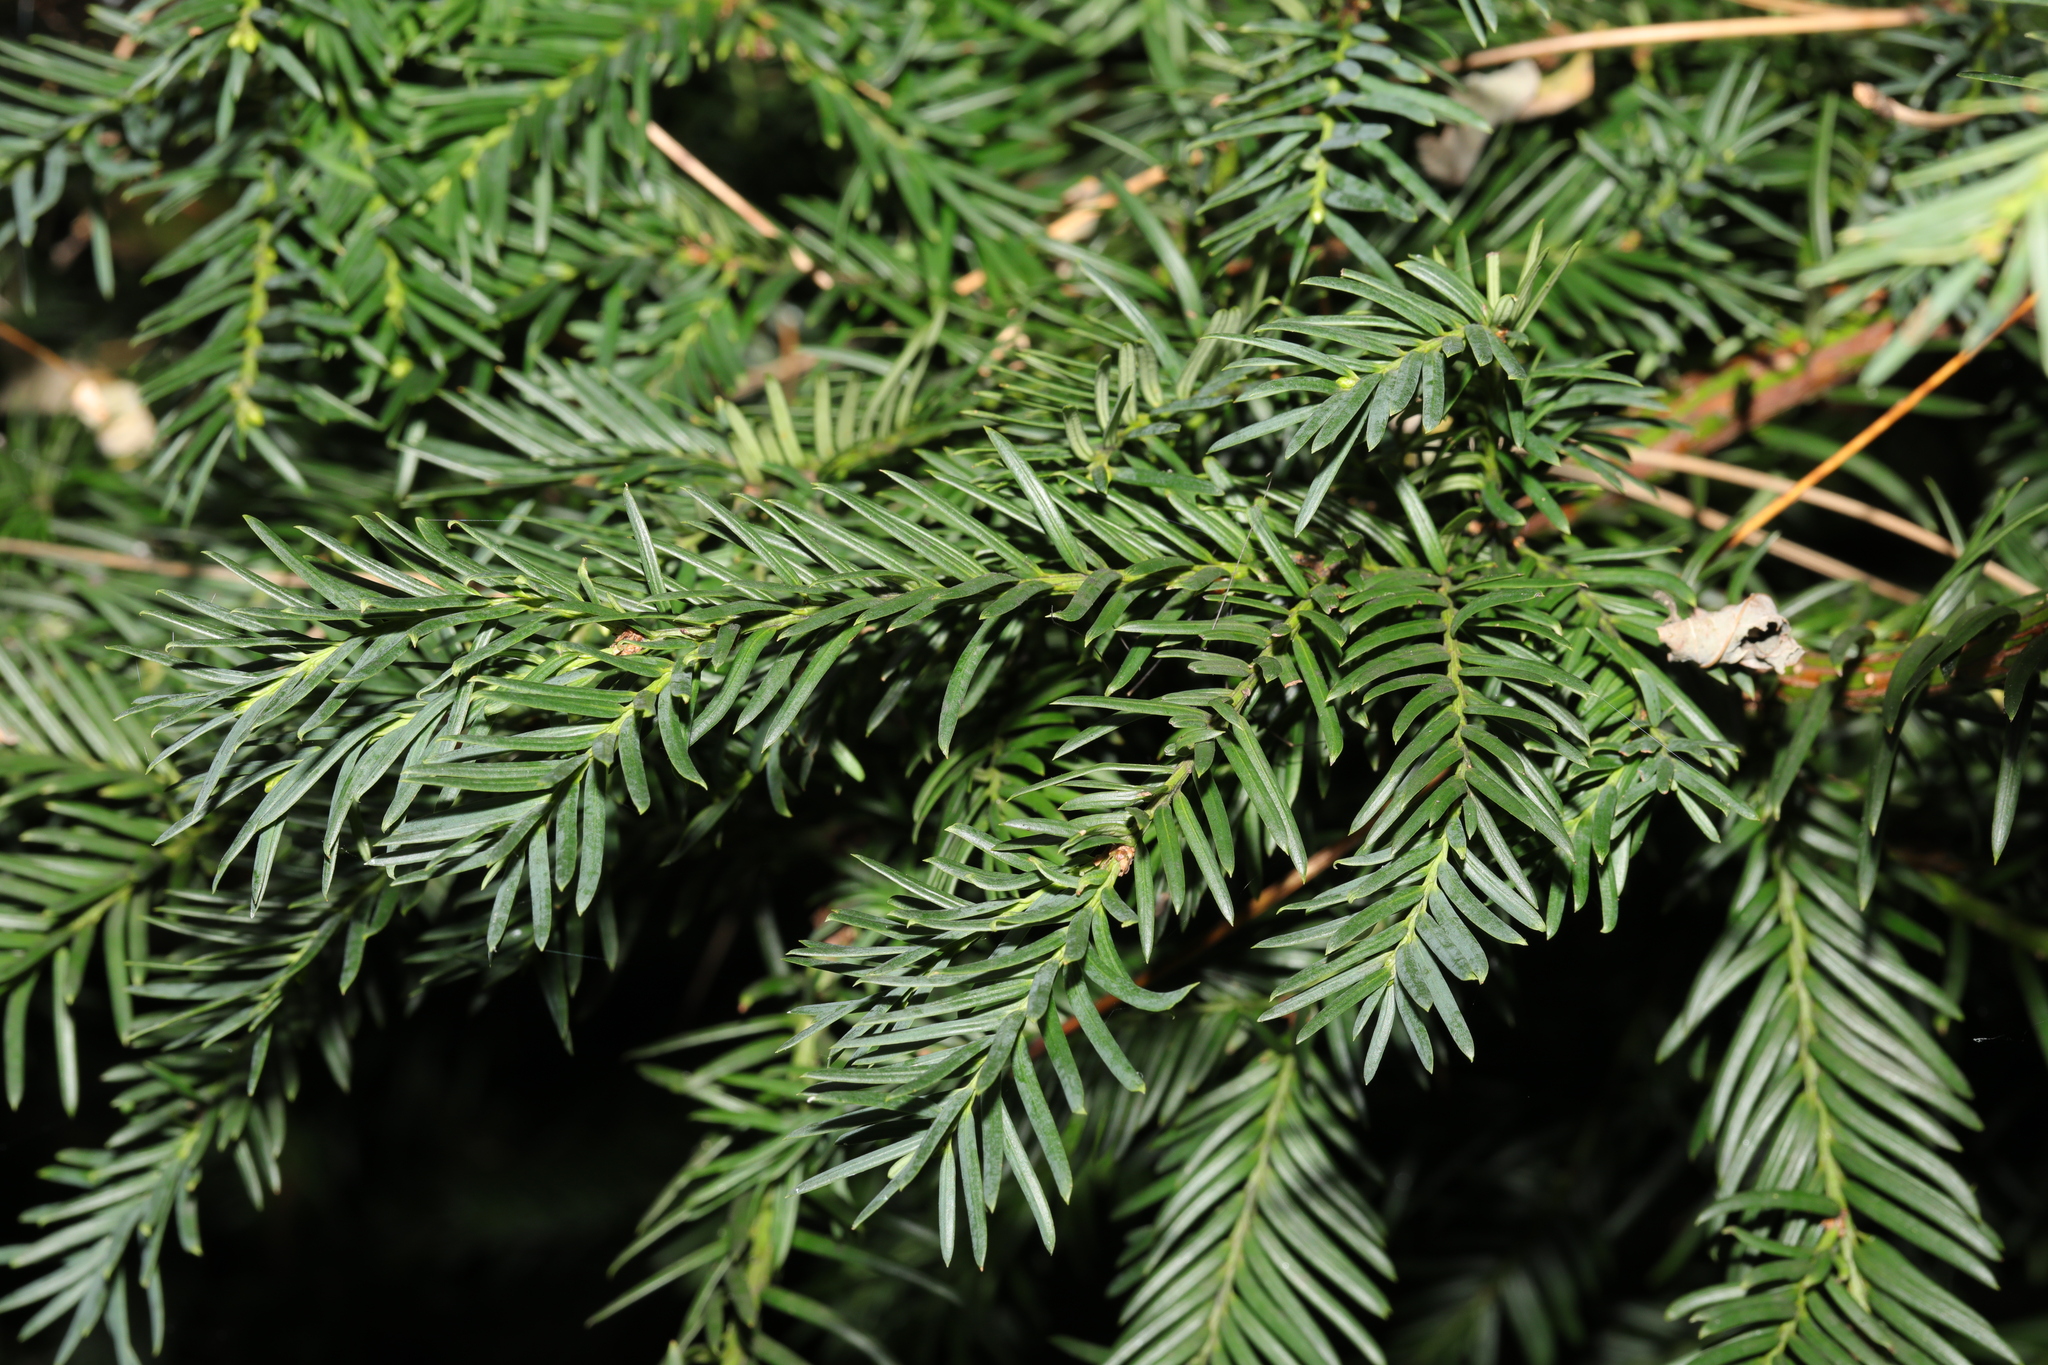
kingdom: Plantae
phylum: Tracheophyta
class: Pinopsida
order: Pinales
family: Taxaceae
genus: Taxus
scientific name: Taxus baccata
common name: Yew
